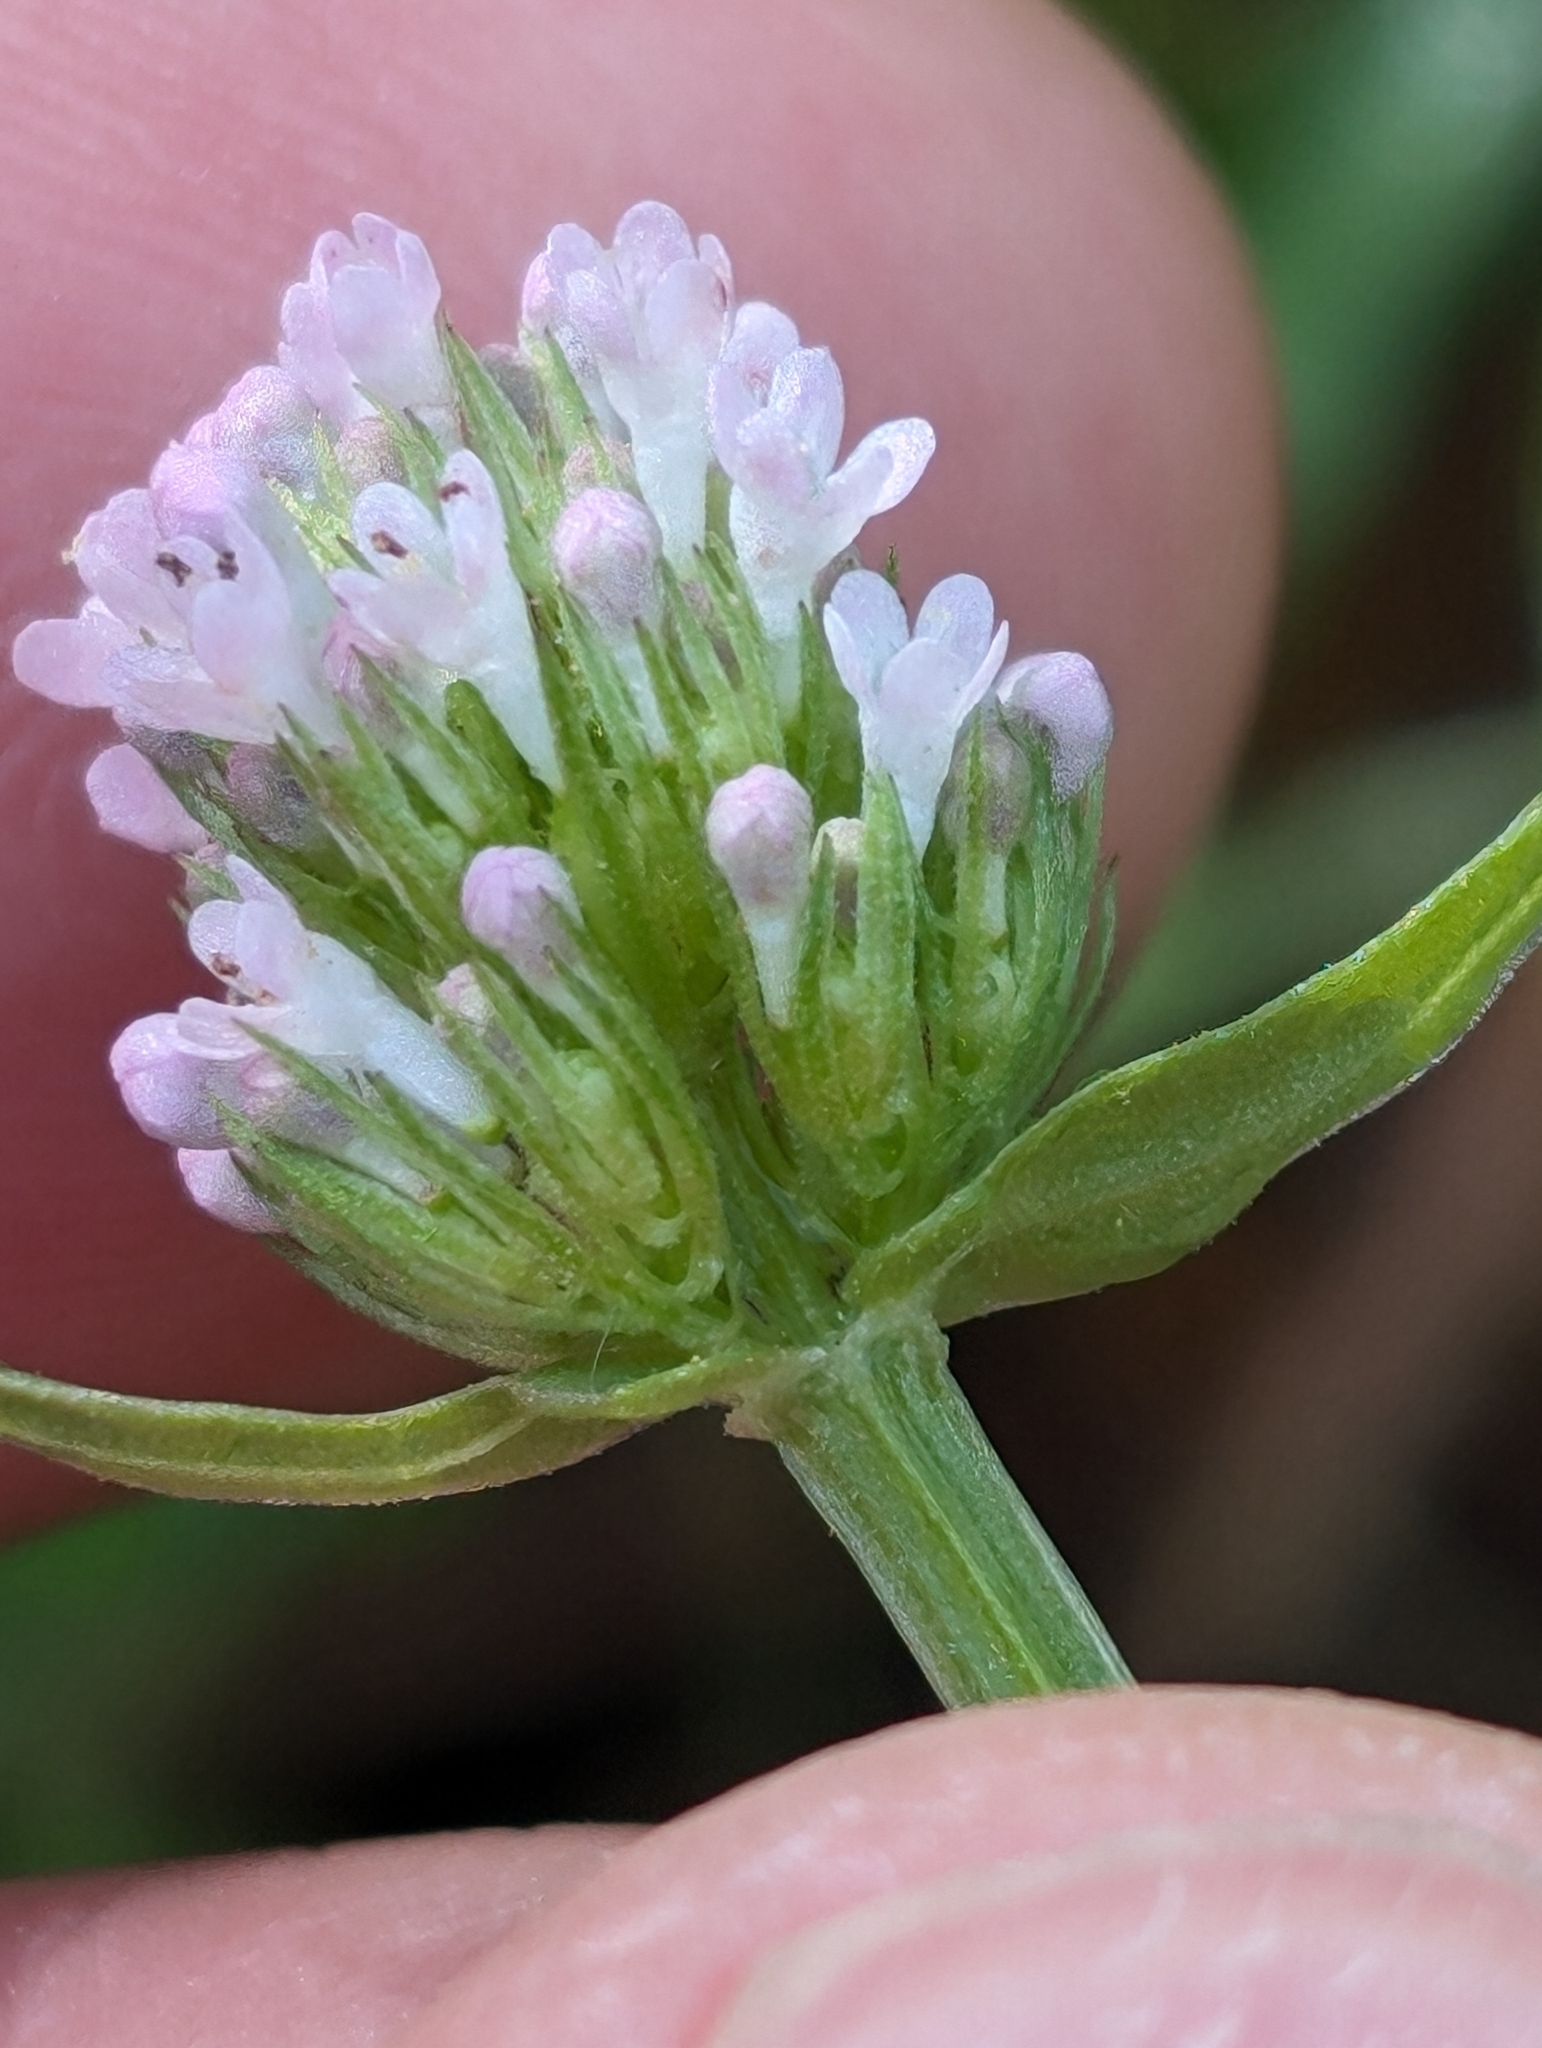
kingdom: Plantae
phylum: Tracheophyta
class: Magnoliopsida
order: Dipsacales
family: Caprifoliaceae
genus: Plectritis
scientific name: Plectritis macroptera
